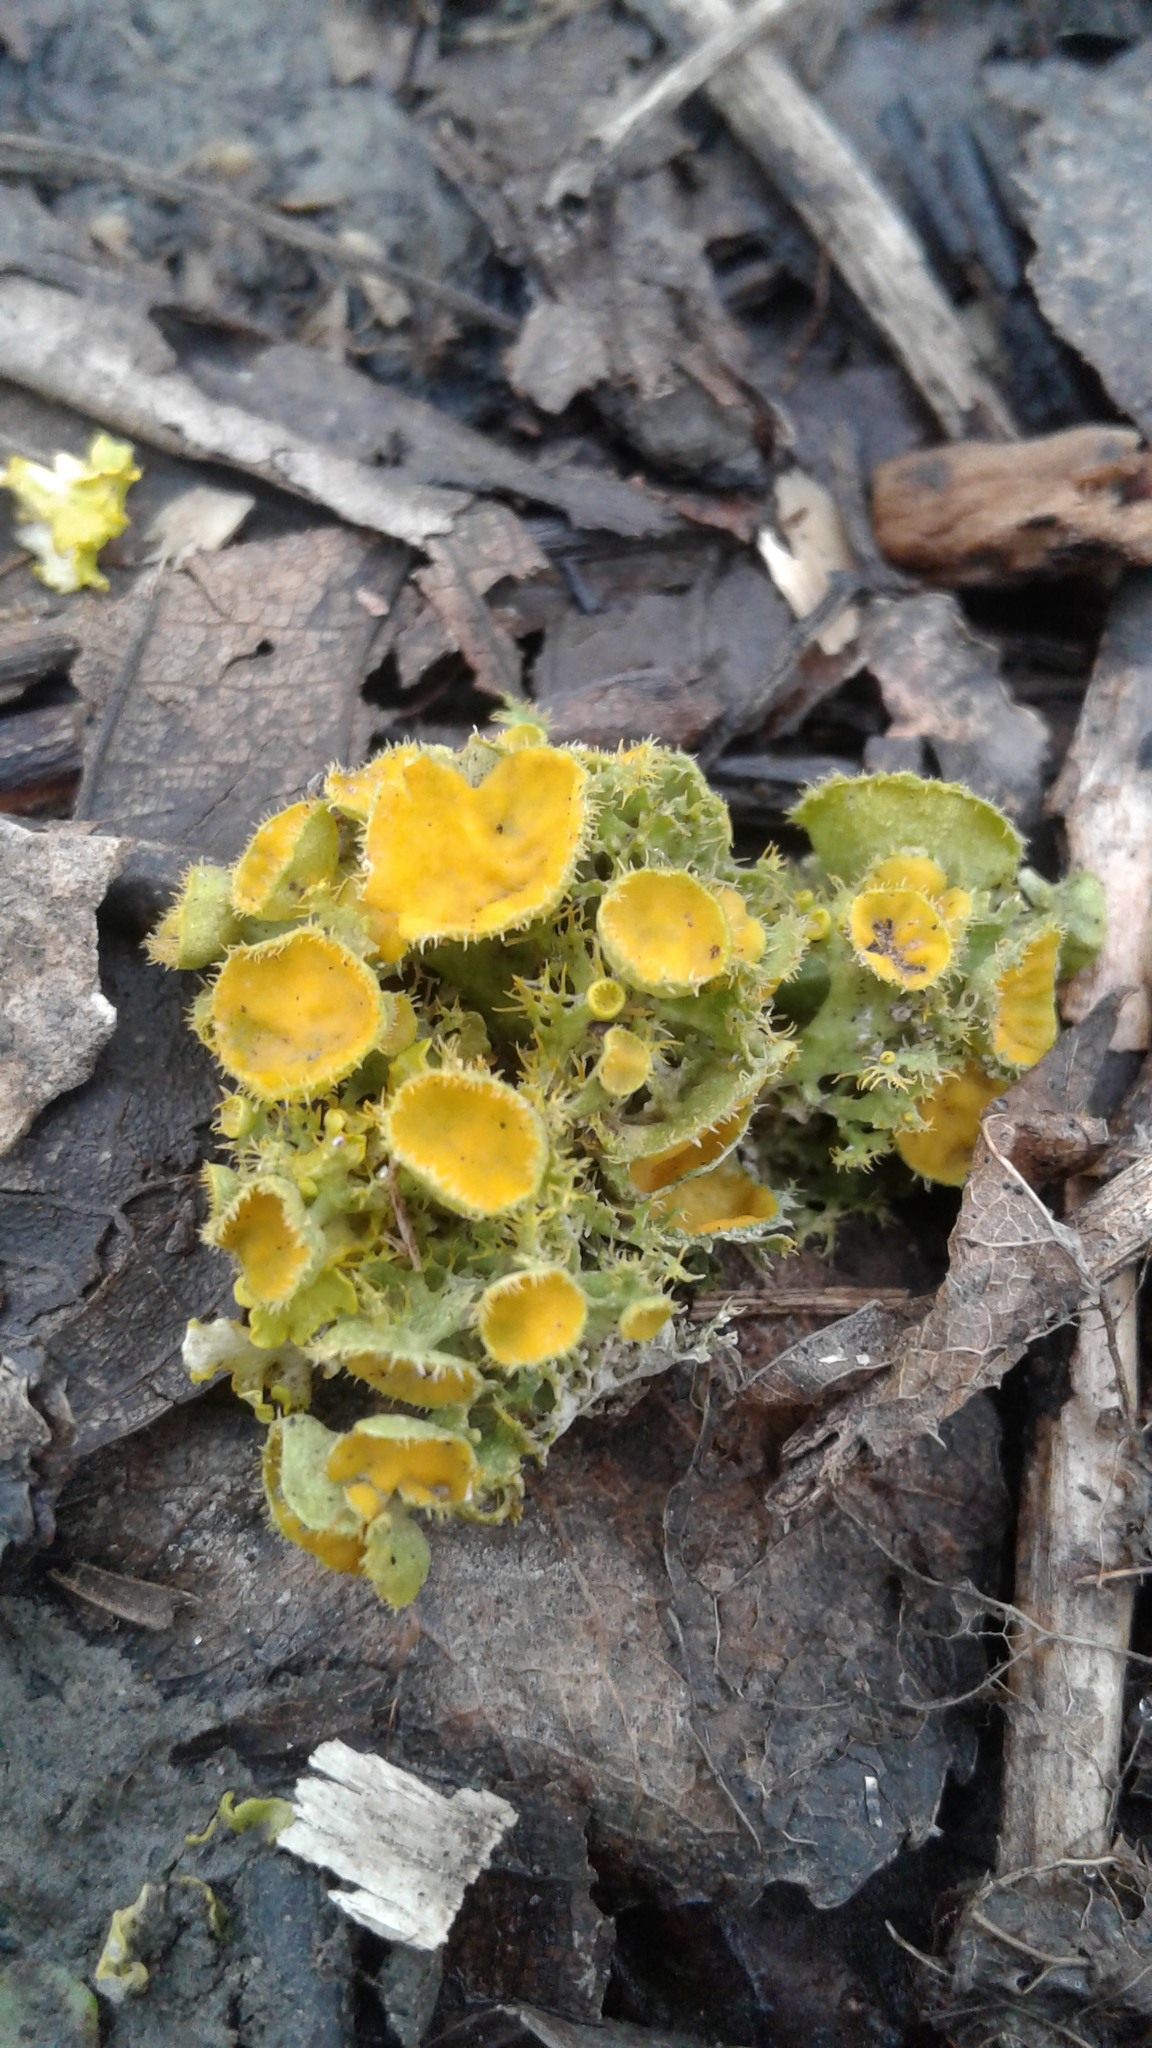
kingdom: Fungi
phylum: Ascomycota
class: Lecanoromycetes
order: Teloschistales
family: Teloschistaceae
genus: Niorma
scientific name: Niorma chrysophthalma
